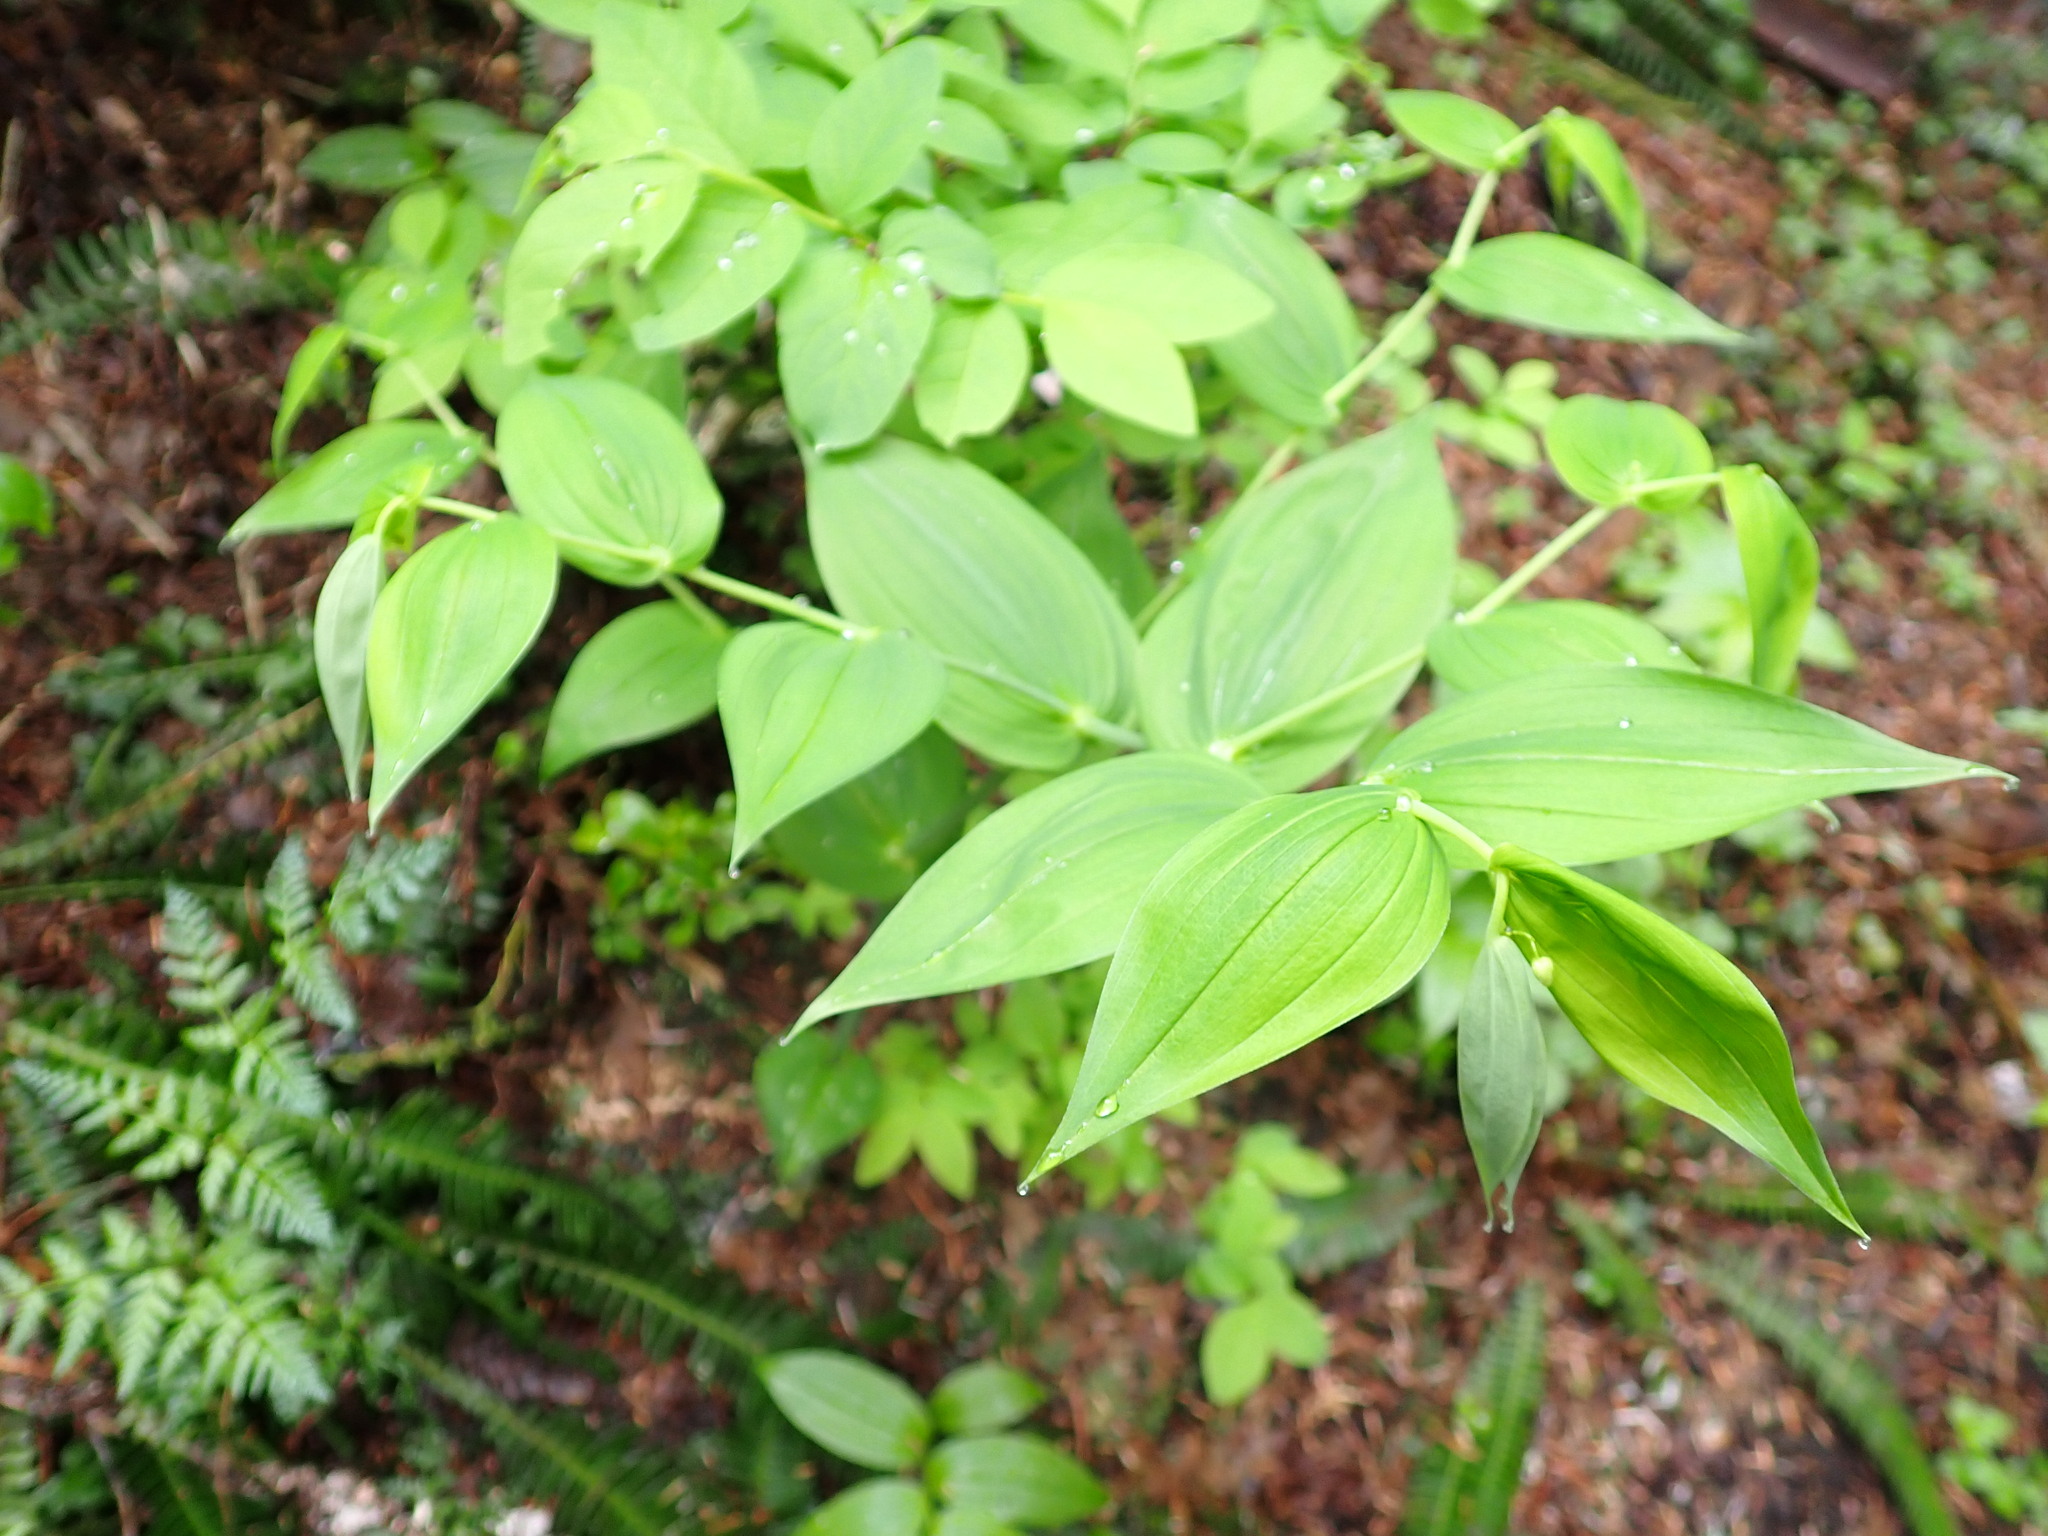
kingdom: Plantae
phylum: Tracheophyta
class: Liliopsida
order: Liliales
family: Liliaceae
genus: Streptopus
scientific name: Streptopus amplexifolius
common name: Clasp twisted stalk
